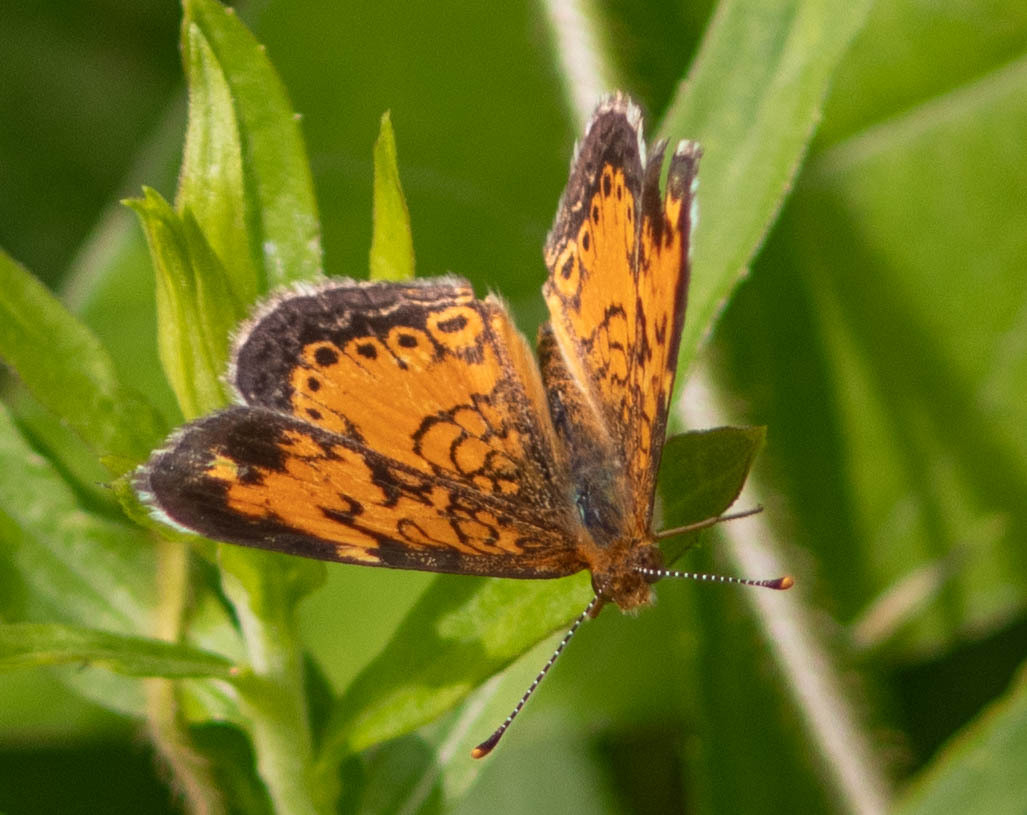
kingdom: Animalia
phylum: Arthropoda
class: Insecta
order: Lepidoptera
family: Nymphalidae
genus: Phyciodes
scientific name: Phyciodes tharos
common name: Pearl crescent
